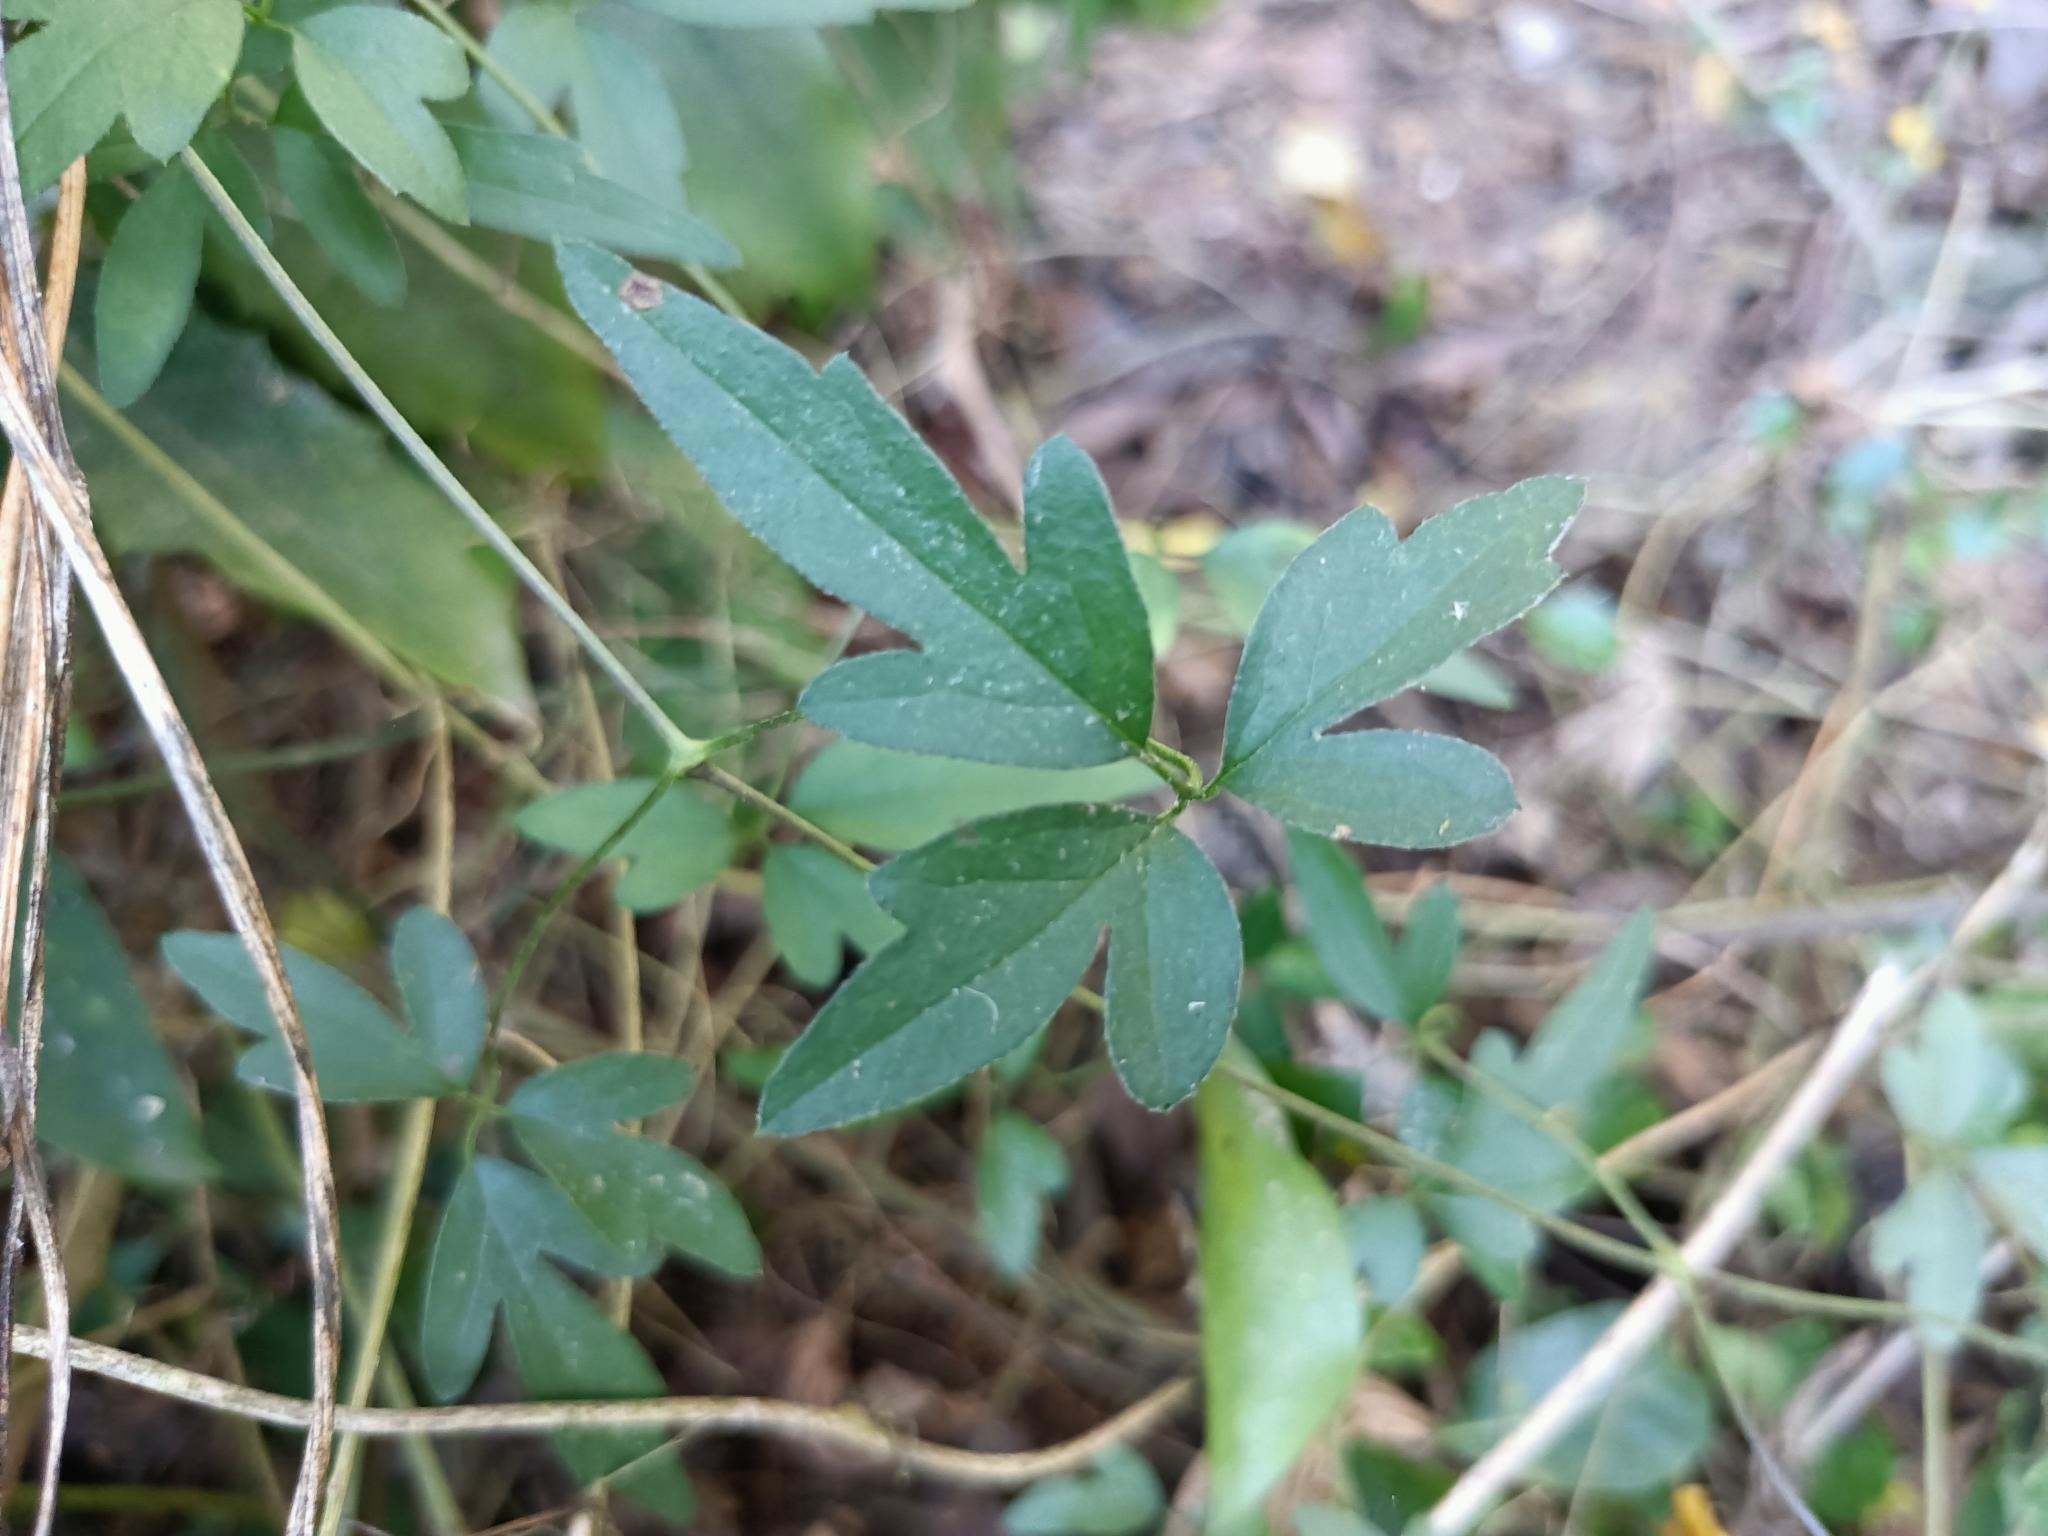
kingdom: Plantae
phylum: Tracheophyta
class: Magnoliopsida
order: Ranunculales
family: Ranunculaceae
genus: Clematis
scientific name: Clematis formosana
